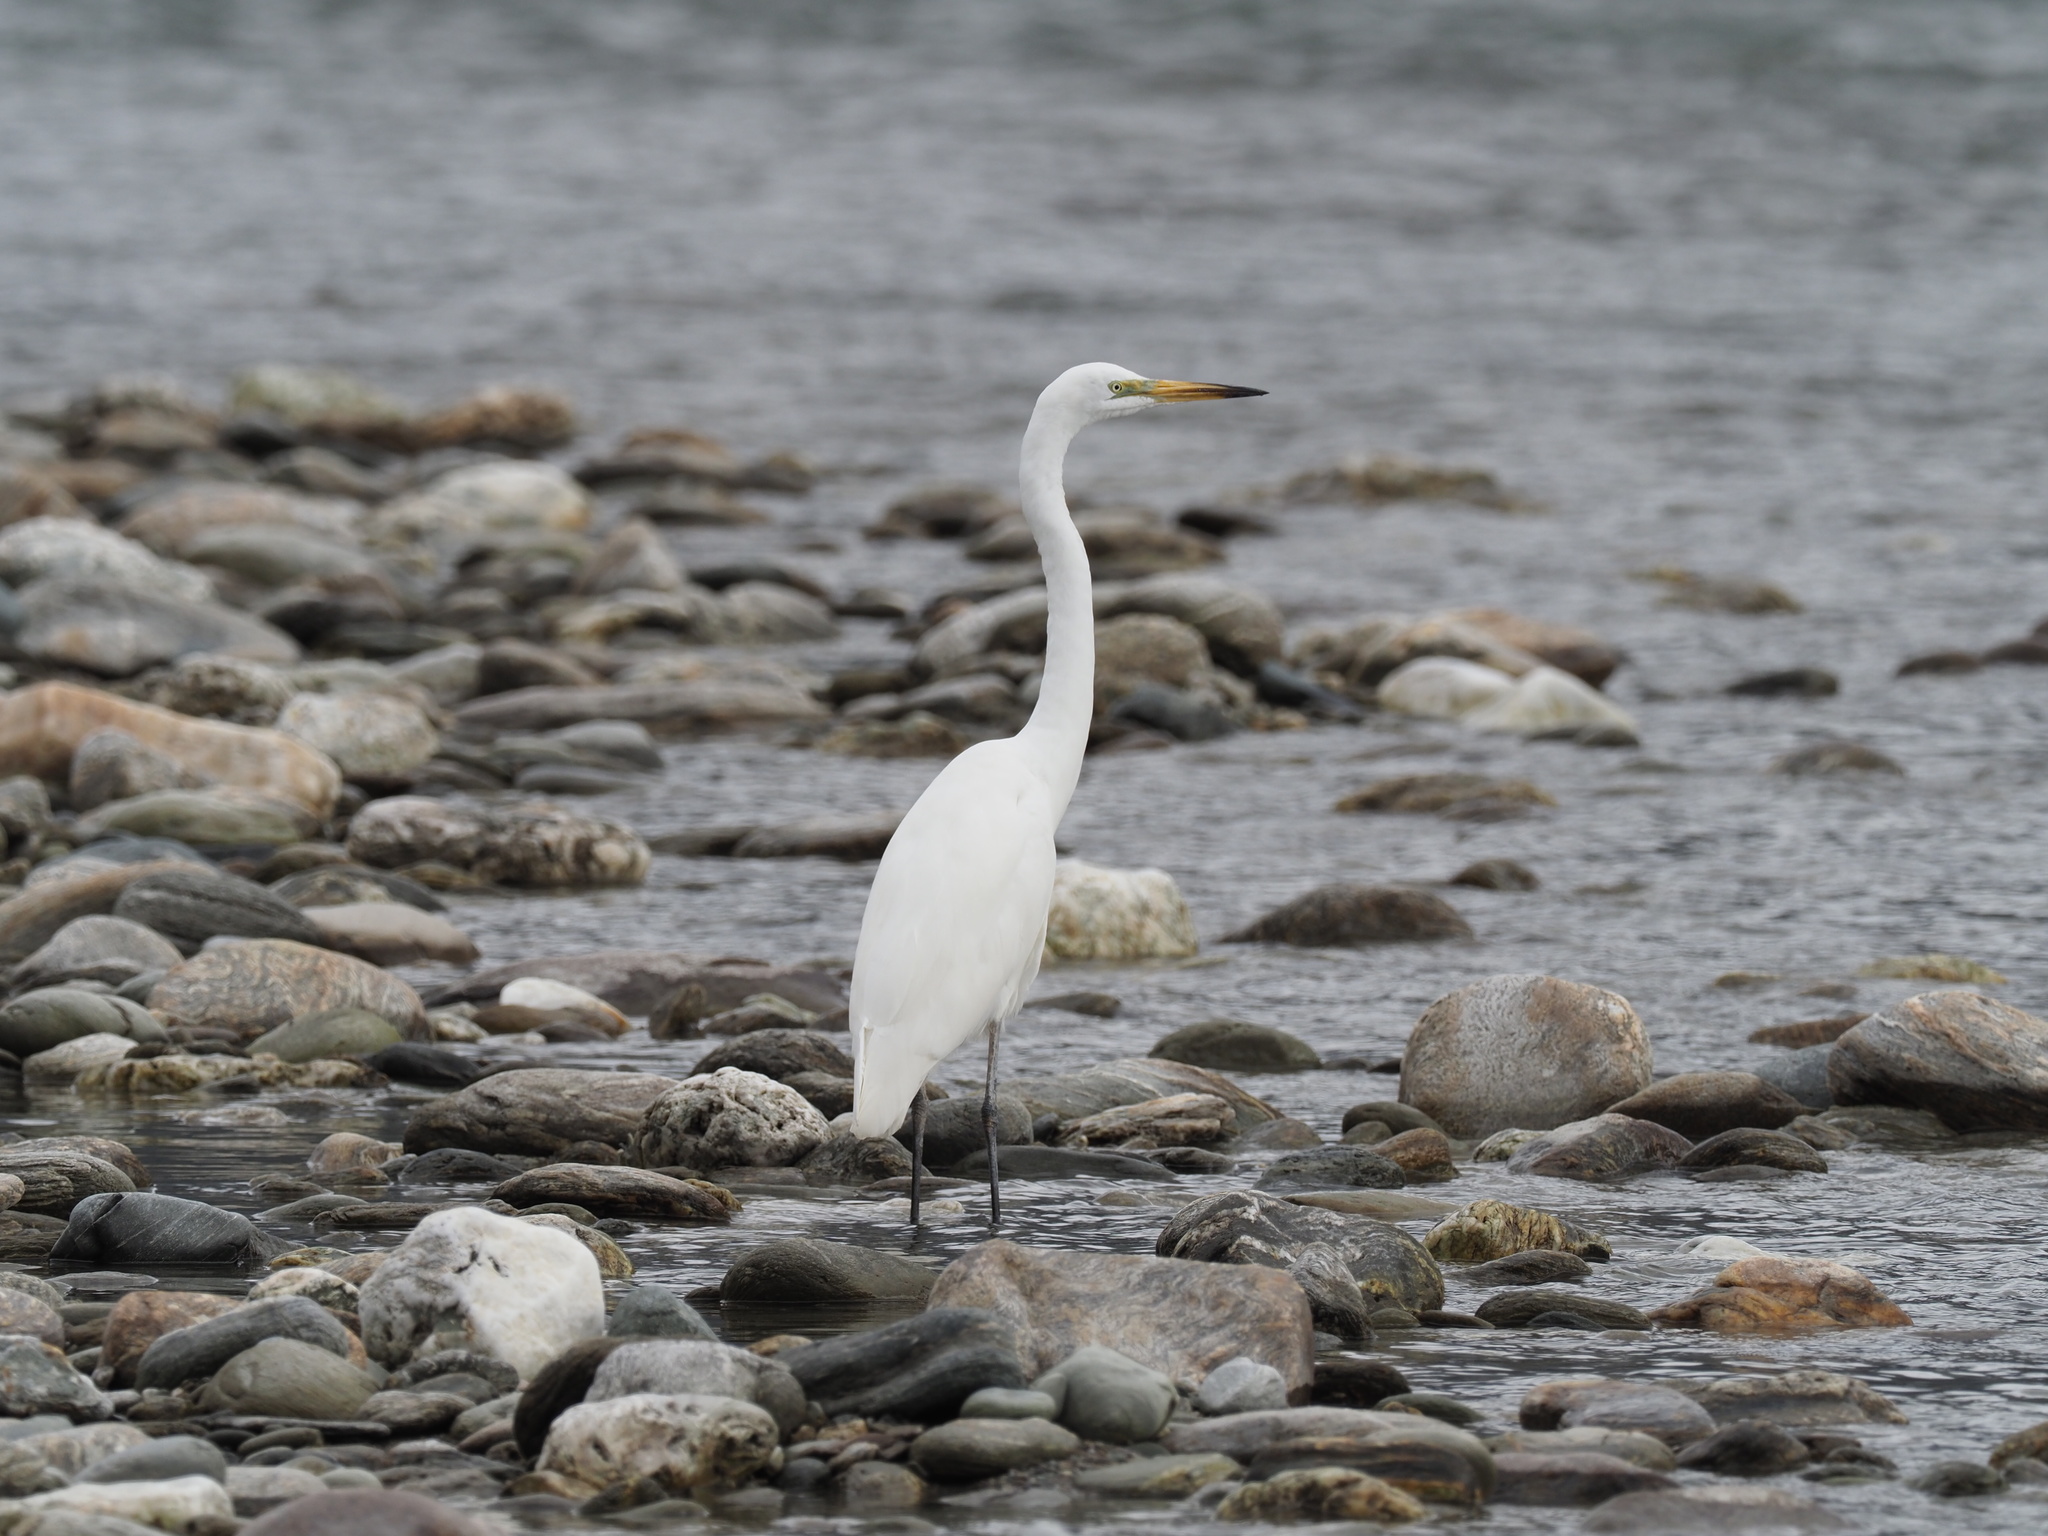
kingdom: Animalia
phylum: Chordata
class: Aves
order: Pelecaniformes
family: Ardeidae
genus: Ardea
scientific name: Ardea modesta
